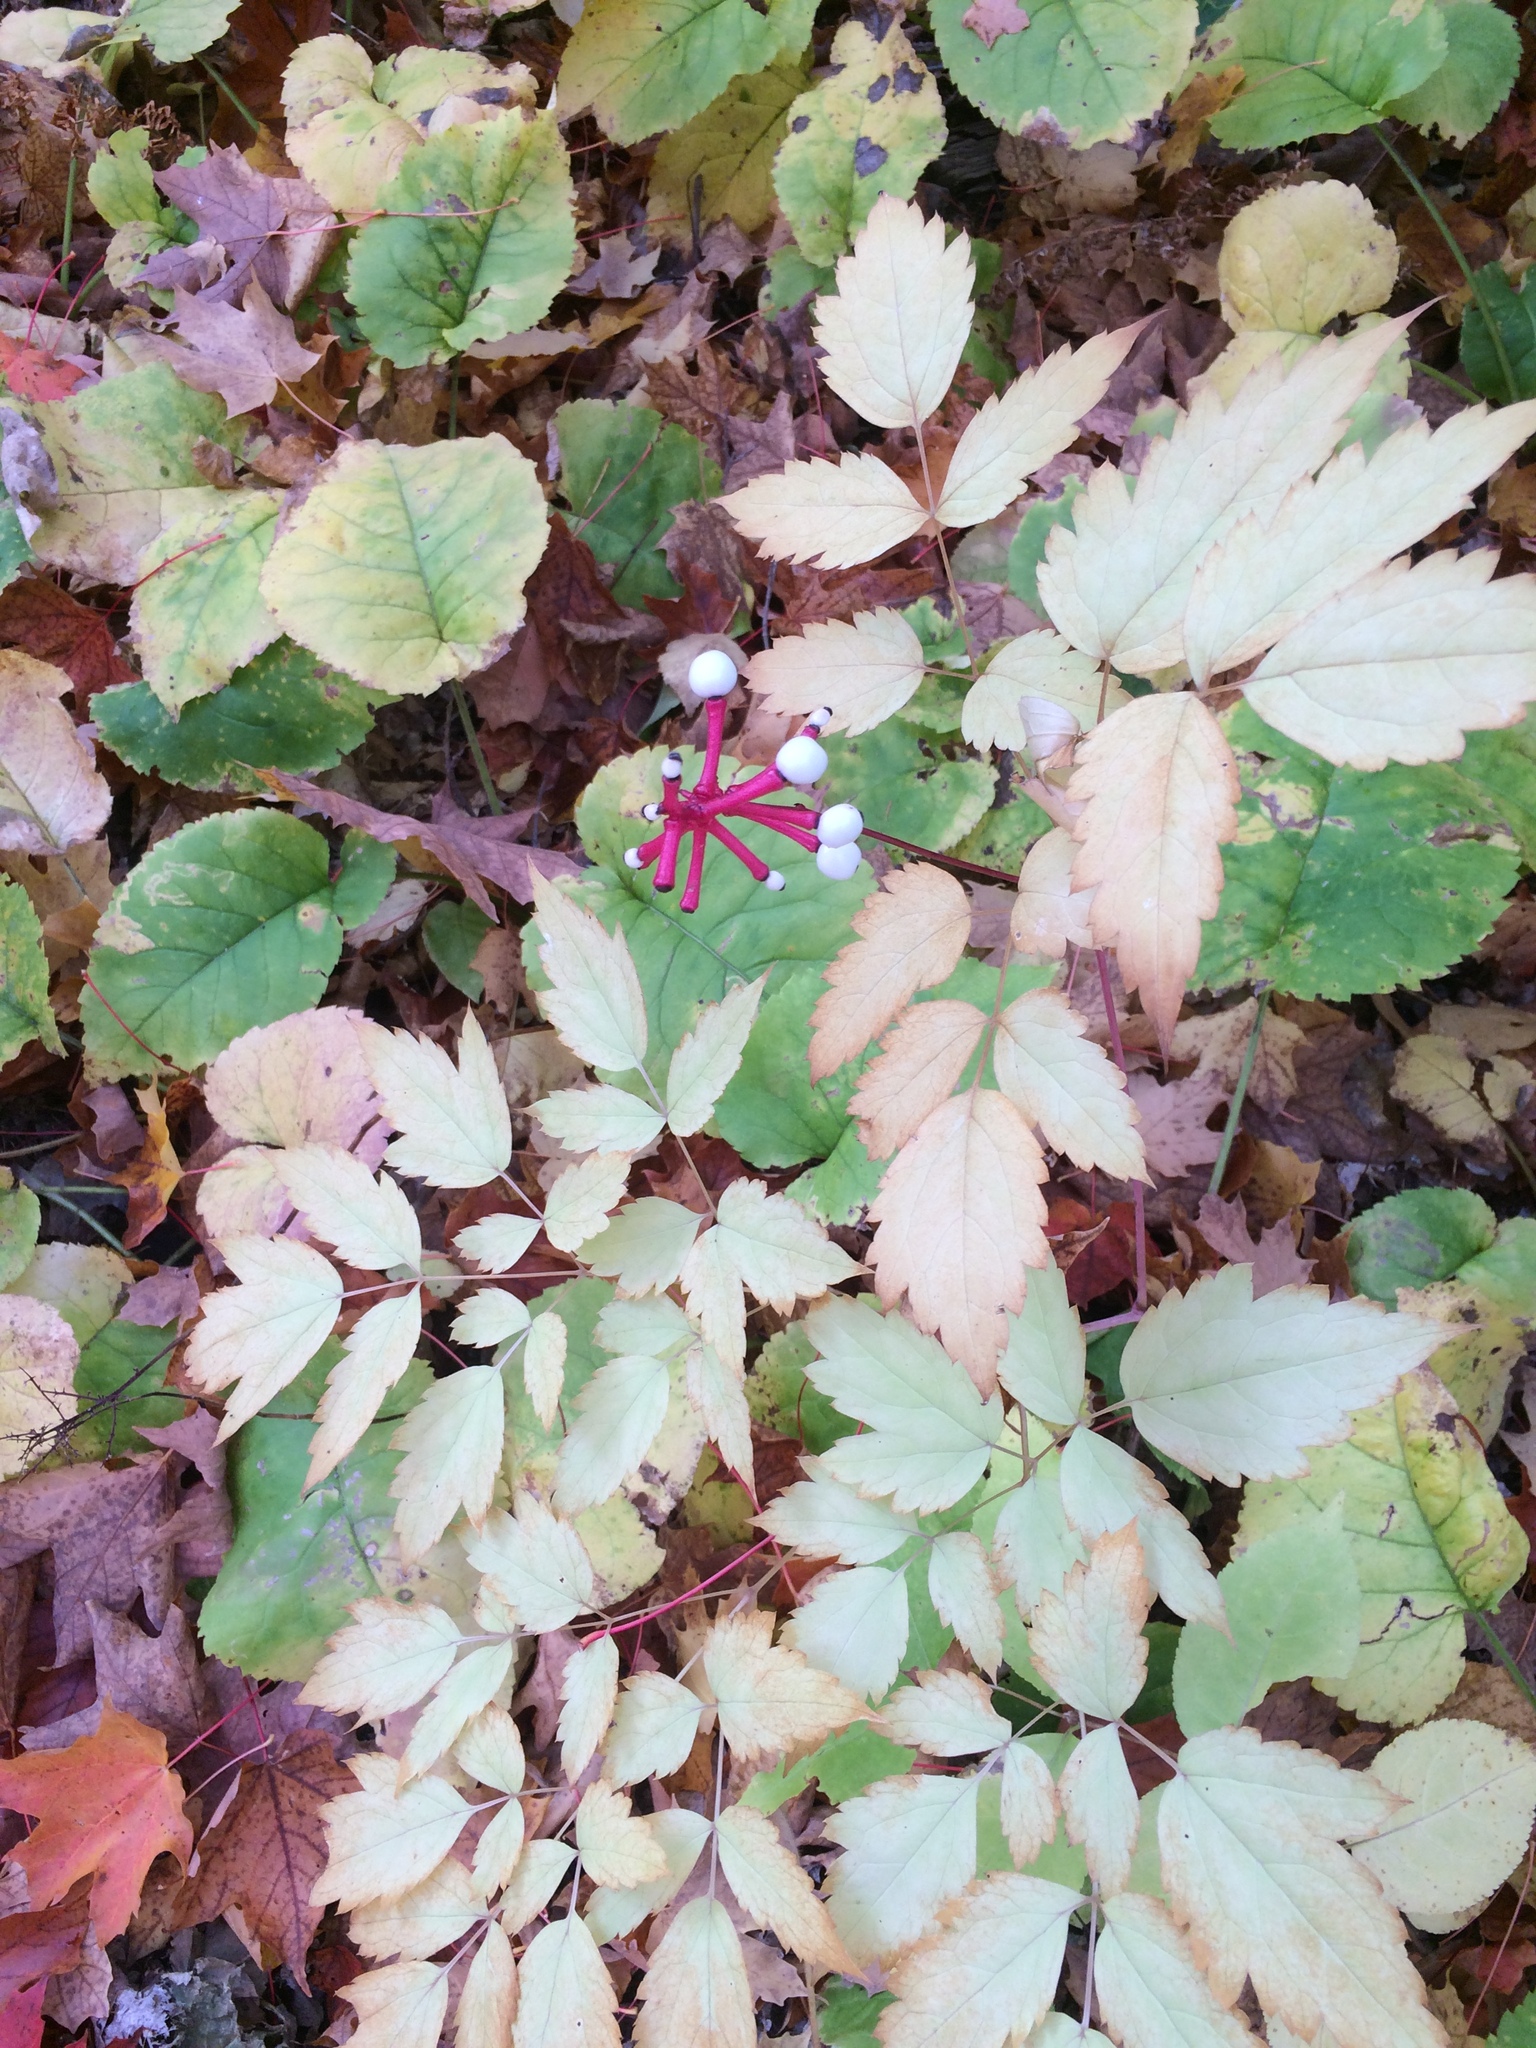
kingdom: Plantae
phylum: Tracheophyta
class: Magnoliopsida
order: Ranunculales
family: Ranunculaceae
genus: Actaea
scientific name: Actaea pachypoda
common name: Doll's-eyes
